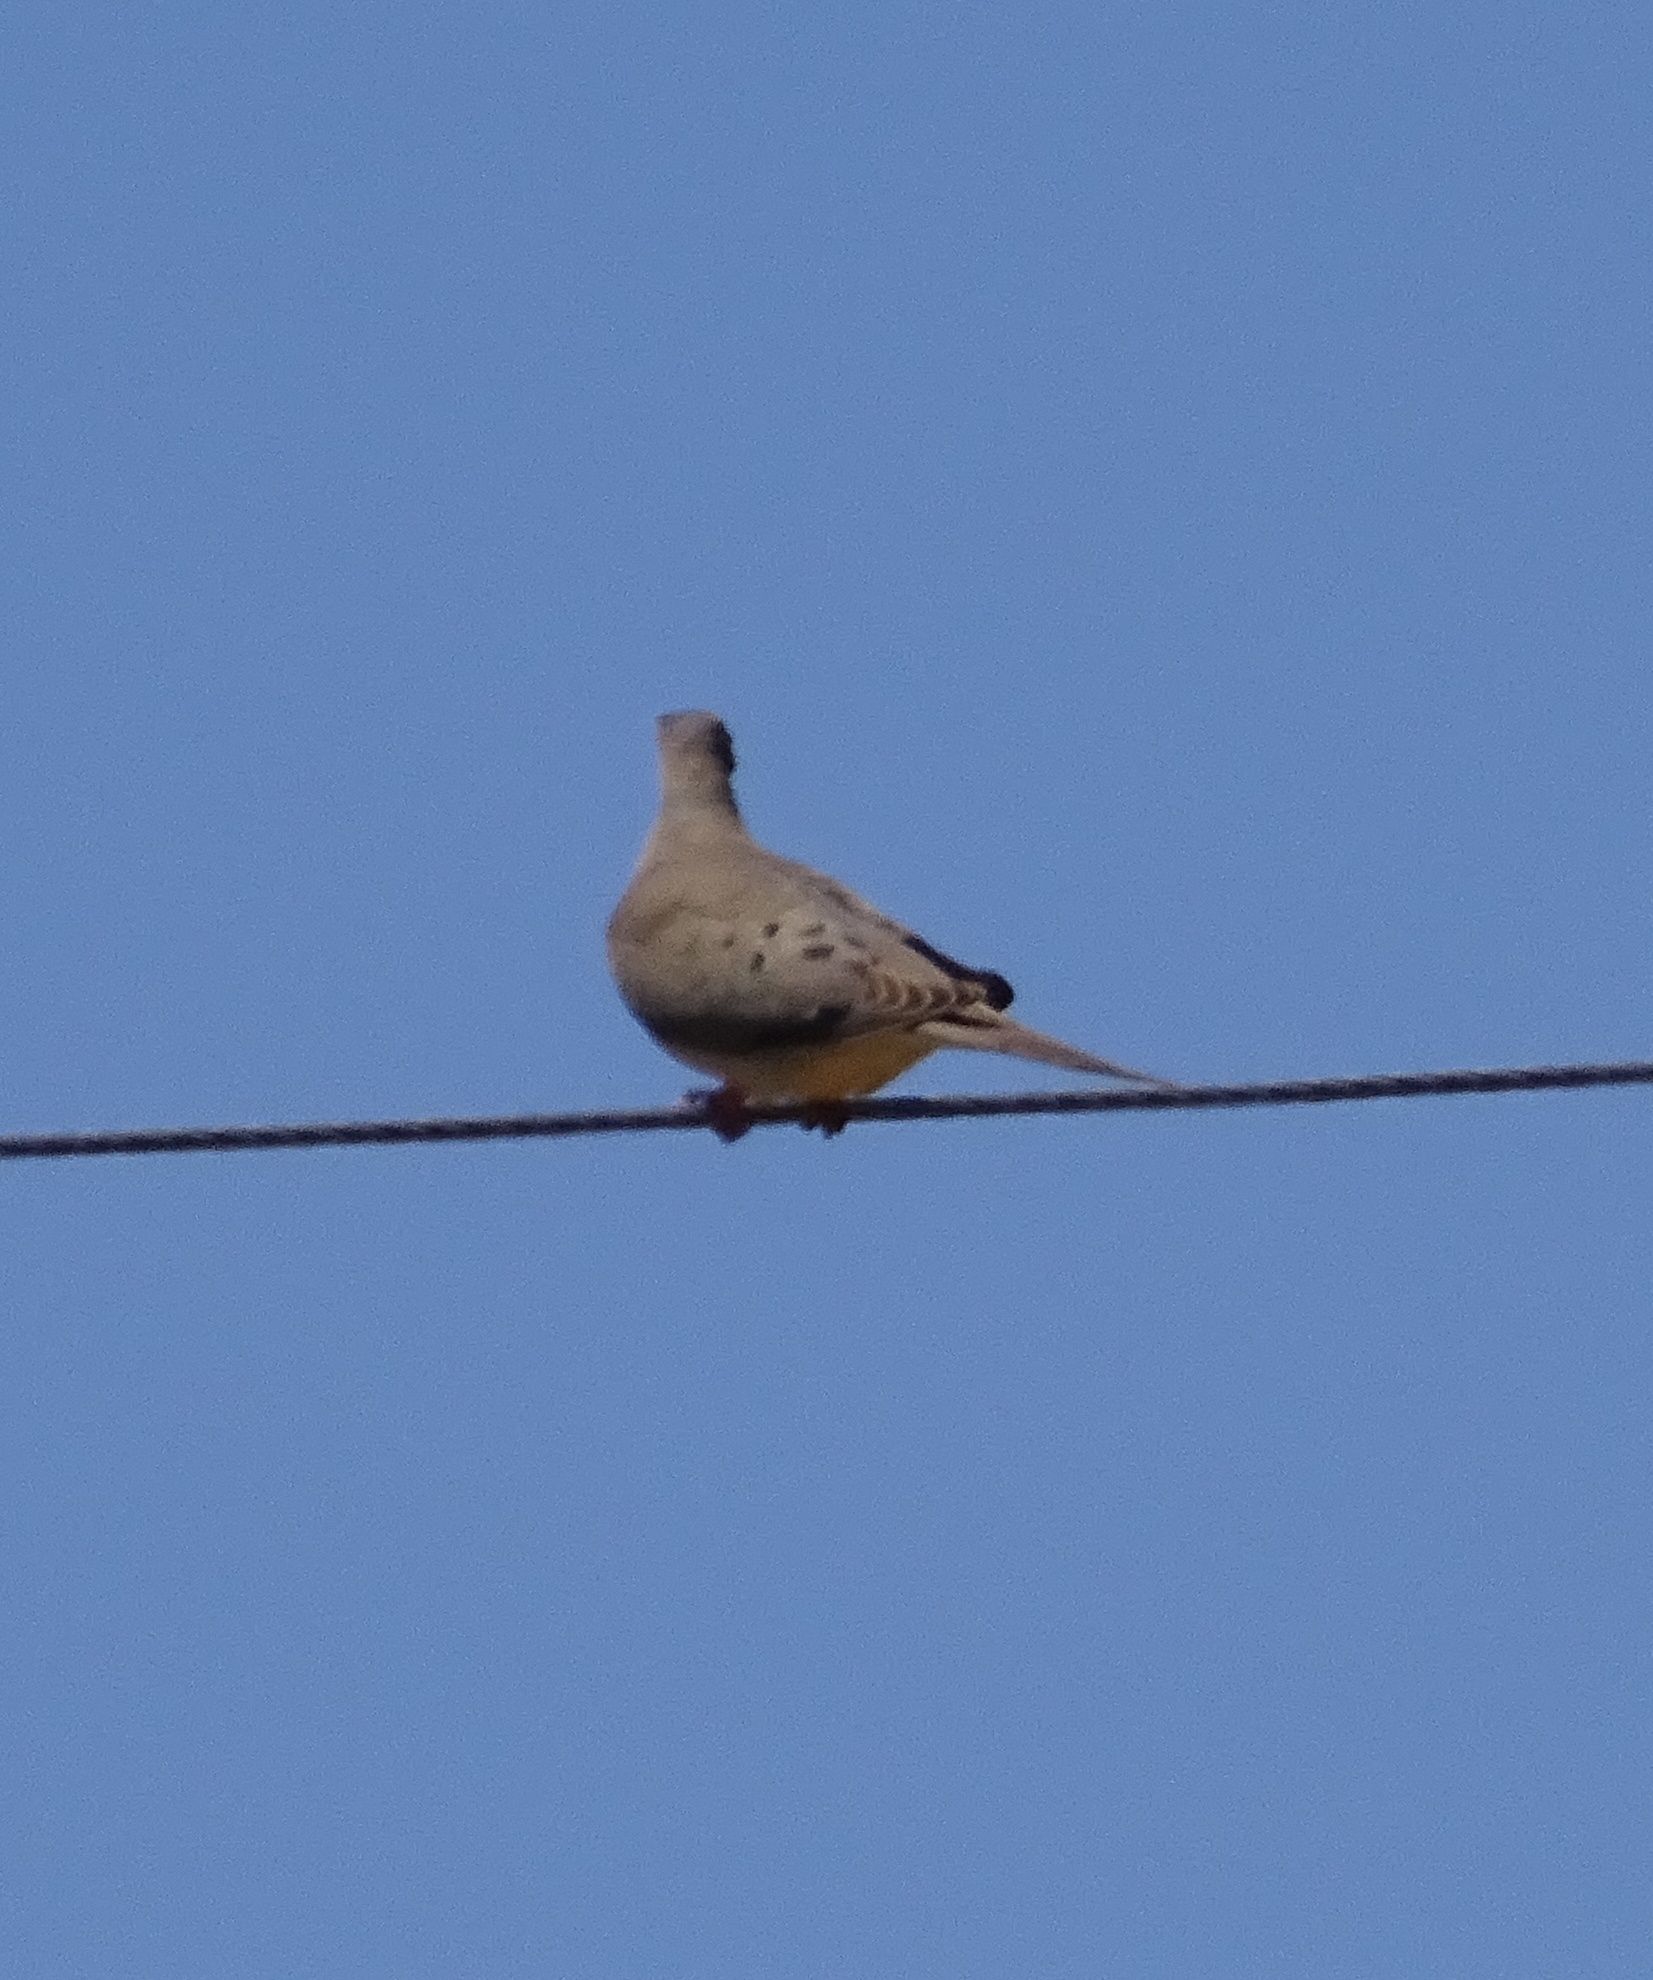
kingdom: Animalia
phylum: Chordata
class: Aves
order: Columbiformes
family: Columbidae
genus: Zenaida
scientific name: Zenaida macroura
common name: Mourning dove
